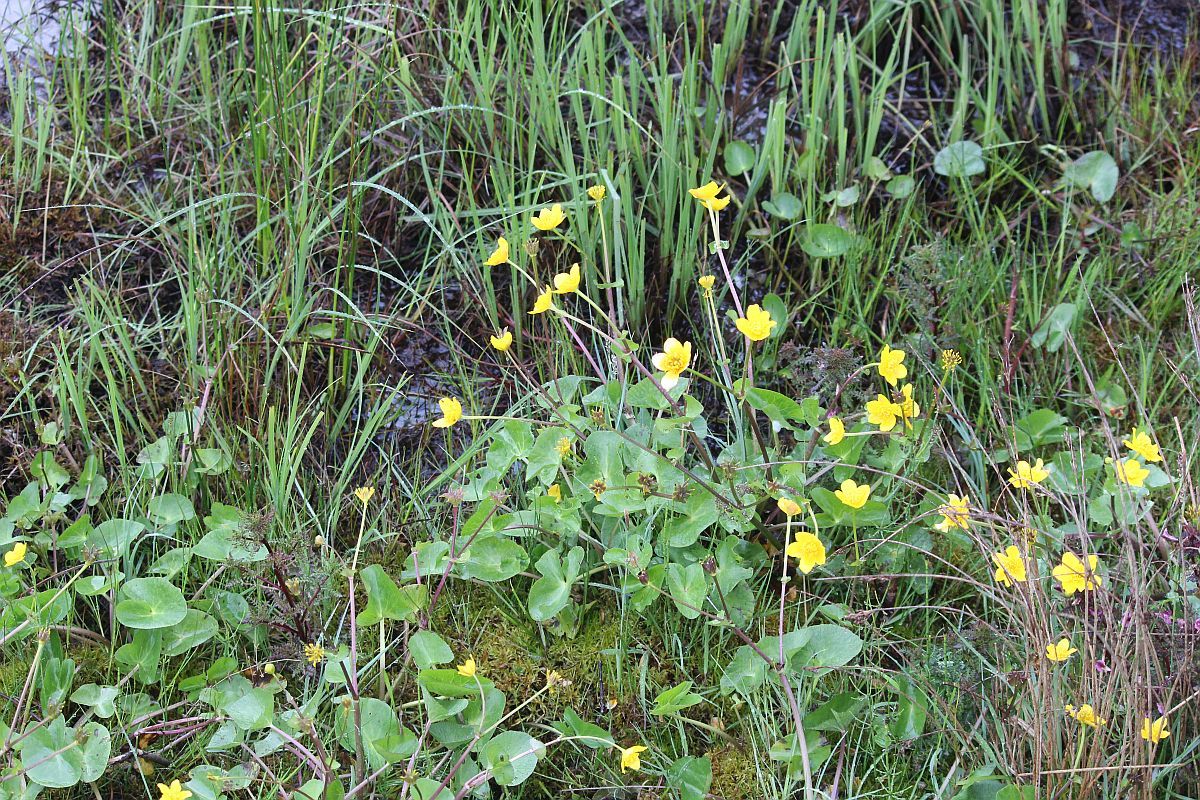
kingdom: Plantae
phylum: Tracheophyta
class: Magnoliopsida
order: Ranunculales
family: Ranunculaceae
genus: Caltha
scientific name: Caltha palustris
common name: Marsh marigold
